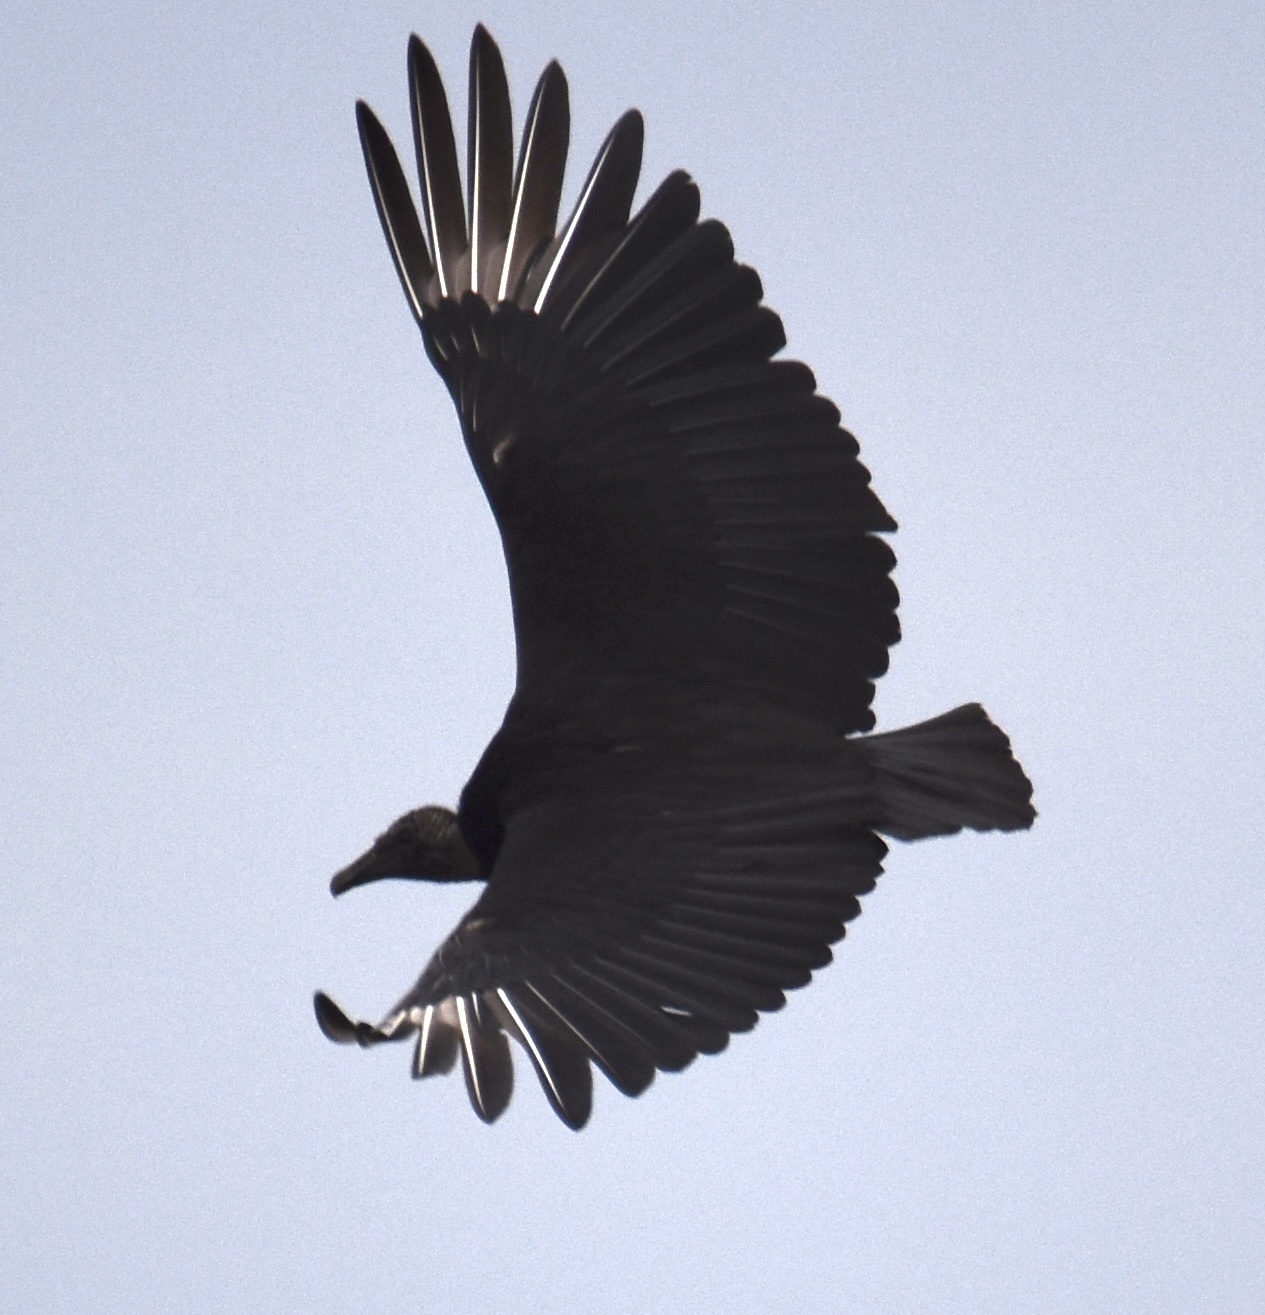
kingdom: Animalia
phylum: Chordata
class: Aves
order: Accipitriformes
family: Cathartidae
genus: Coragyps
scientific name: Coragyps atratus
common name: Black vulture
